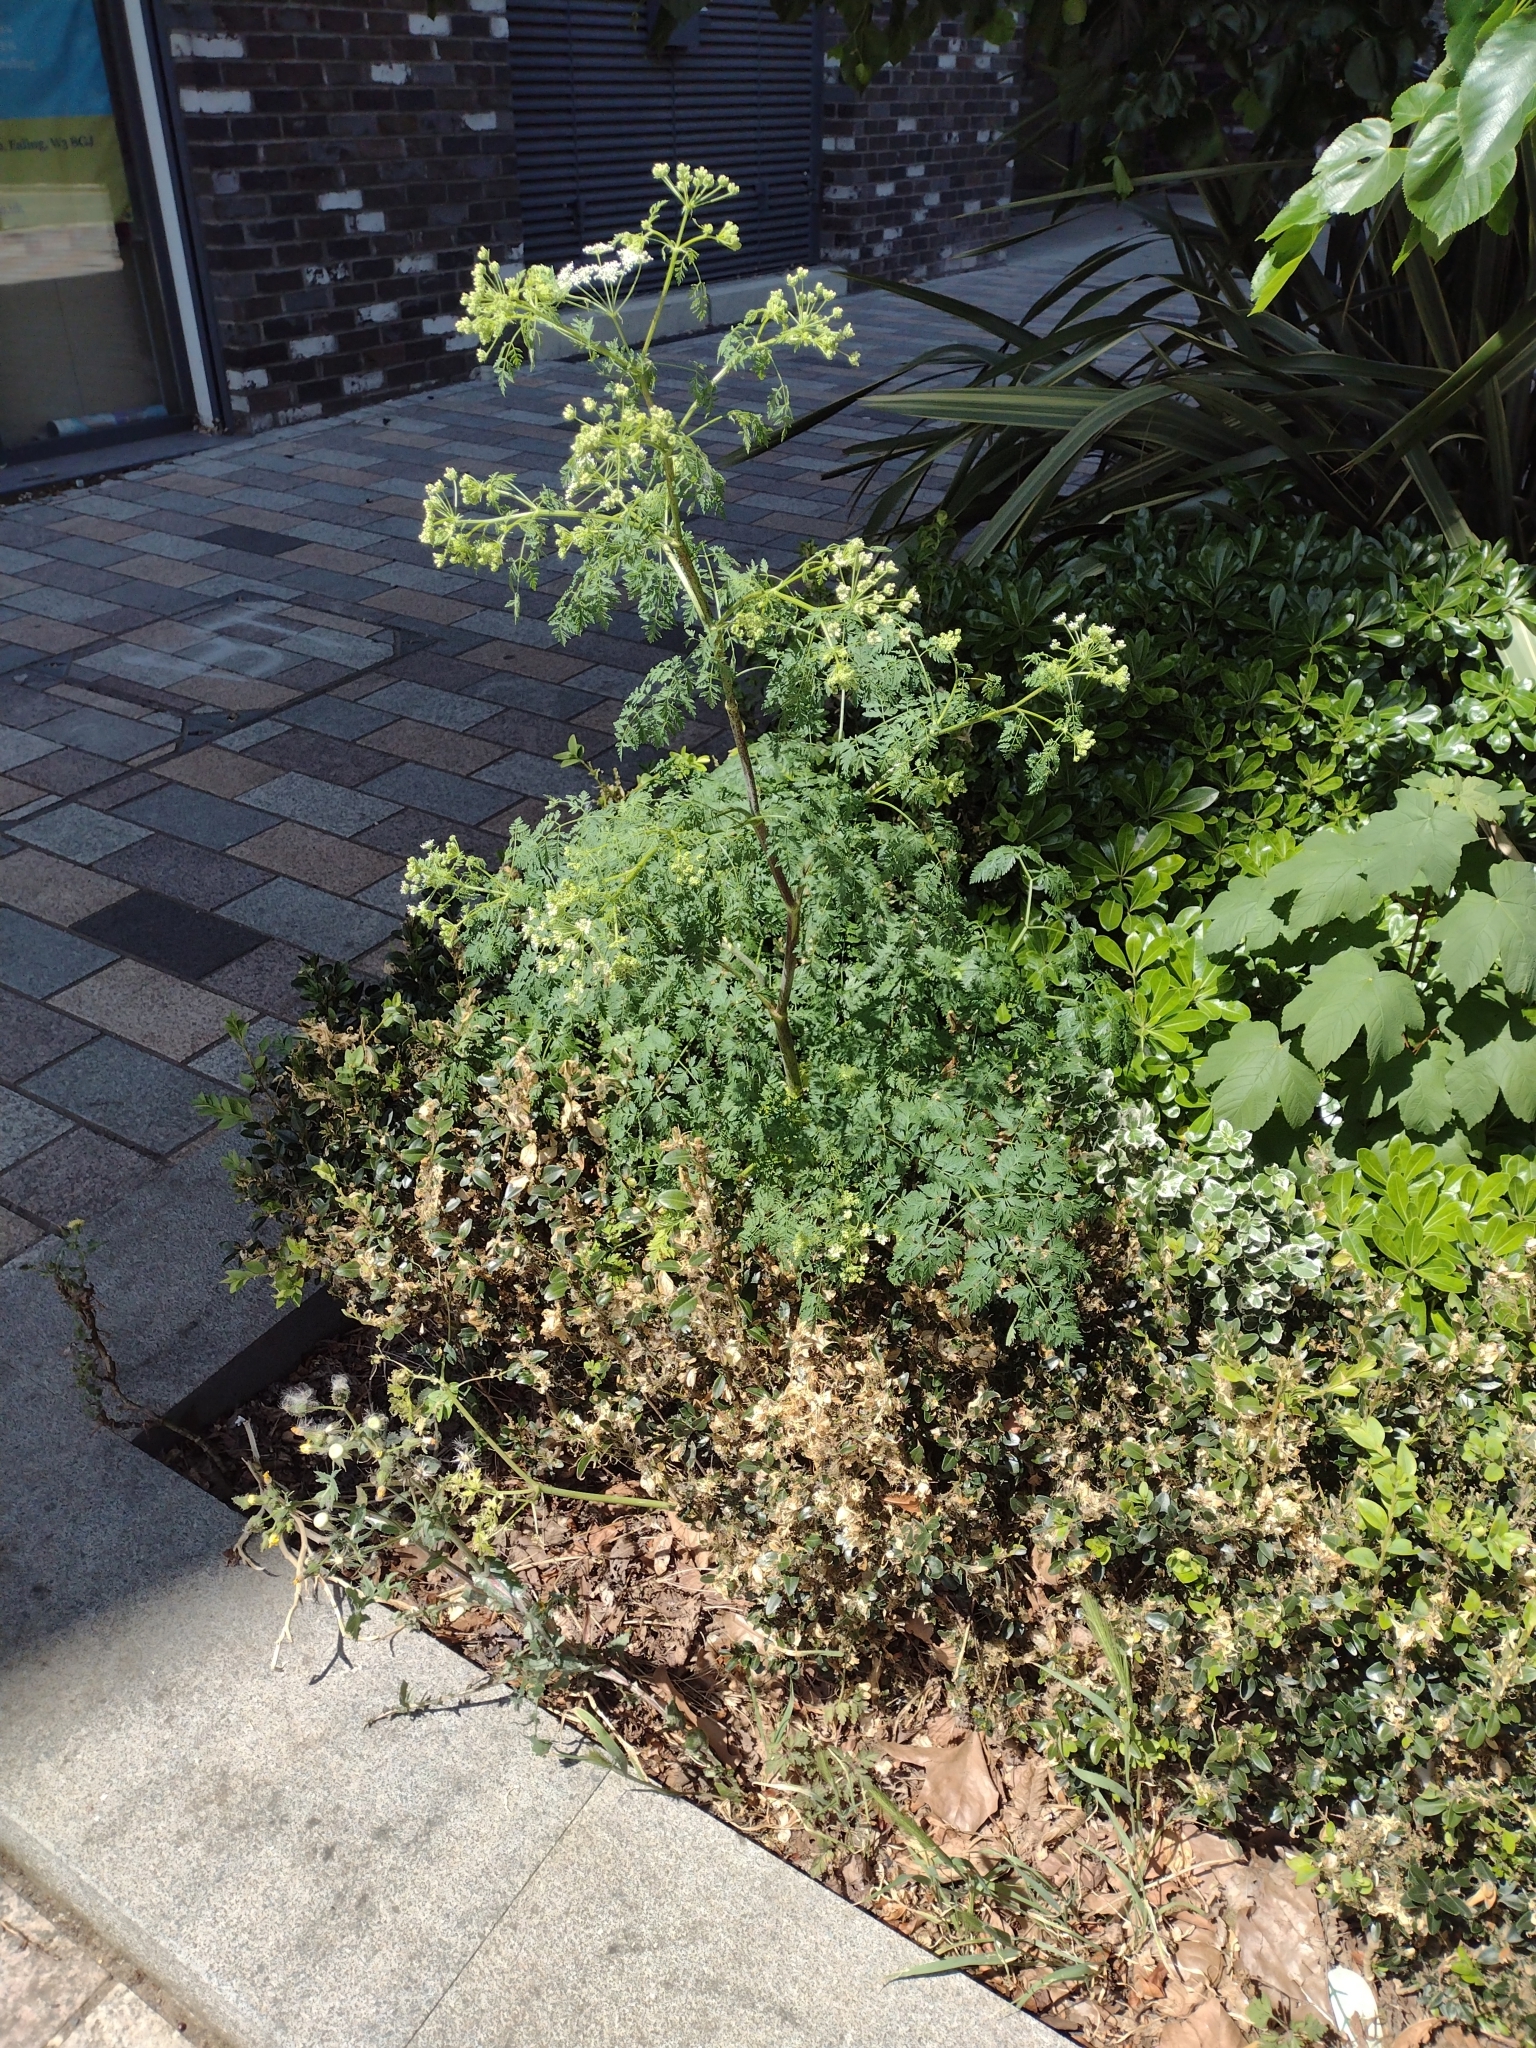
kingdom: Plantae
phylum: Tracheophyta
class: Magnoliopsida
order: Apiales
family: Apiaceae
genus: Conium
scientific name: Conium maculatum
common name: Hemlock
